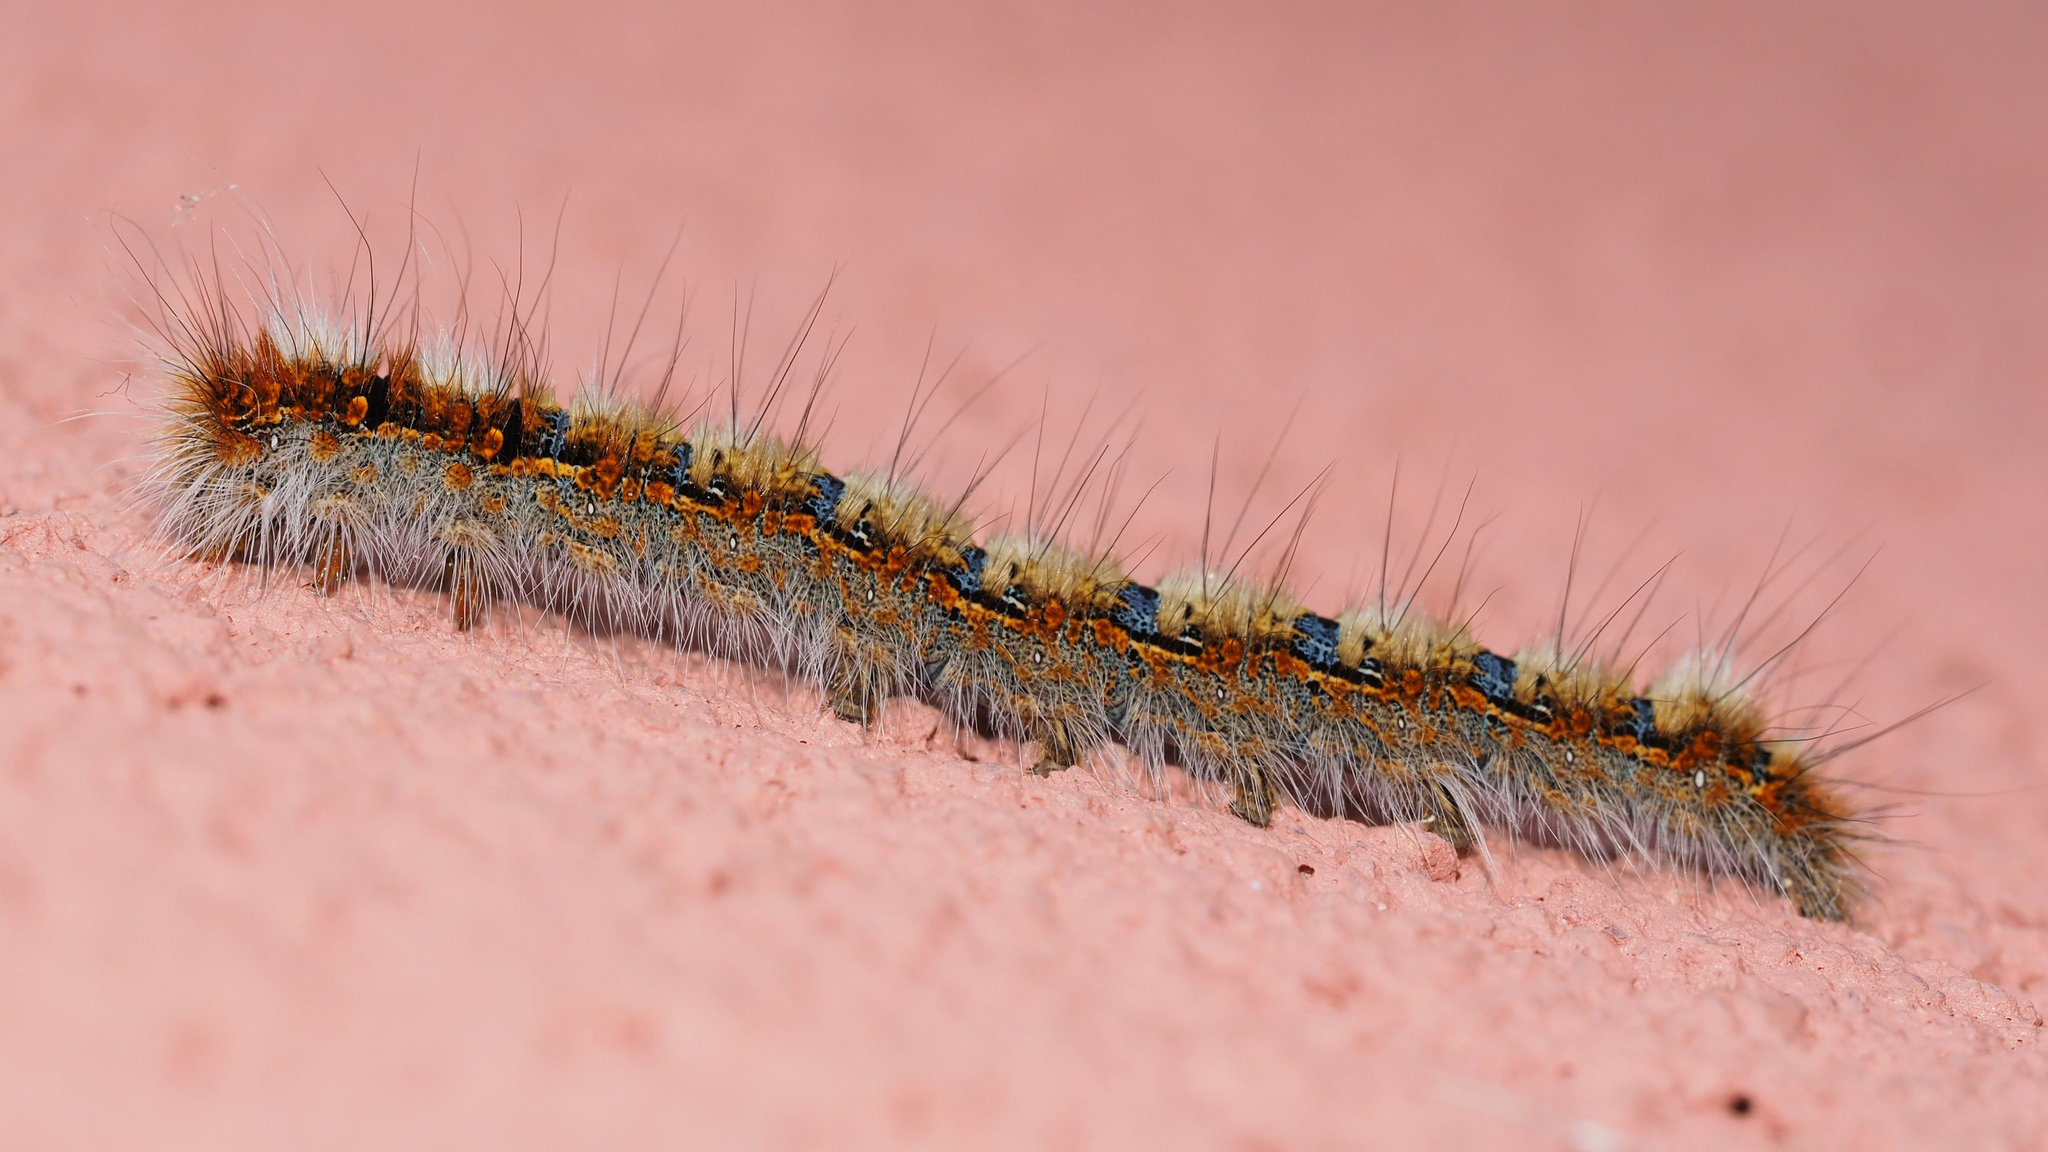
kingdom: Animalia
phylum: Arthropoda
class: Insecta
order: Lepidoptera
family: Lasiocampidae
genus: Lasiocampa
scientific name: Lasiocampa quercus
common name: Oak eggar
